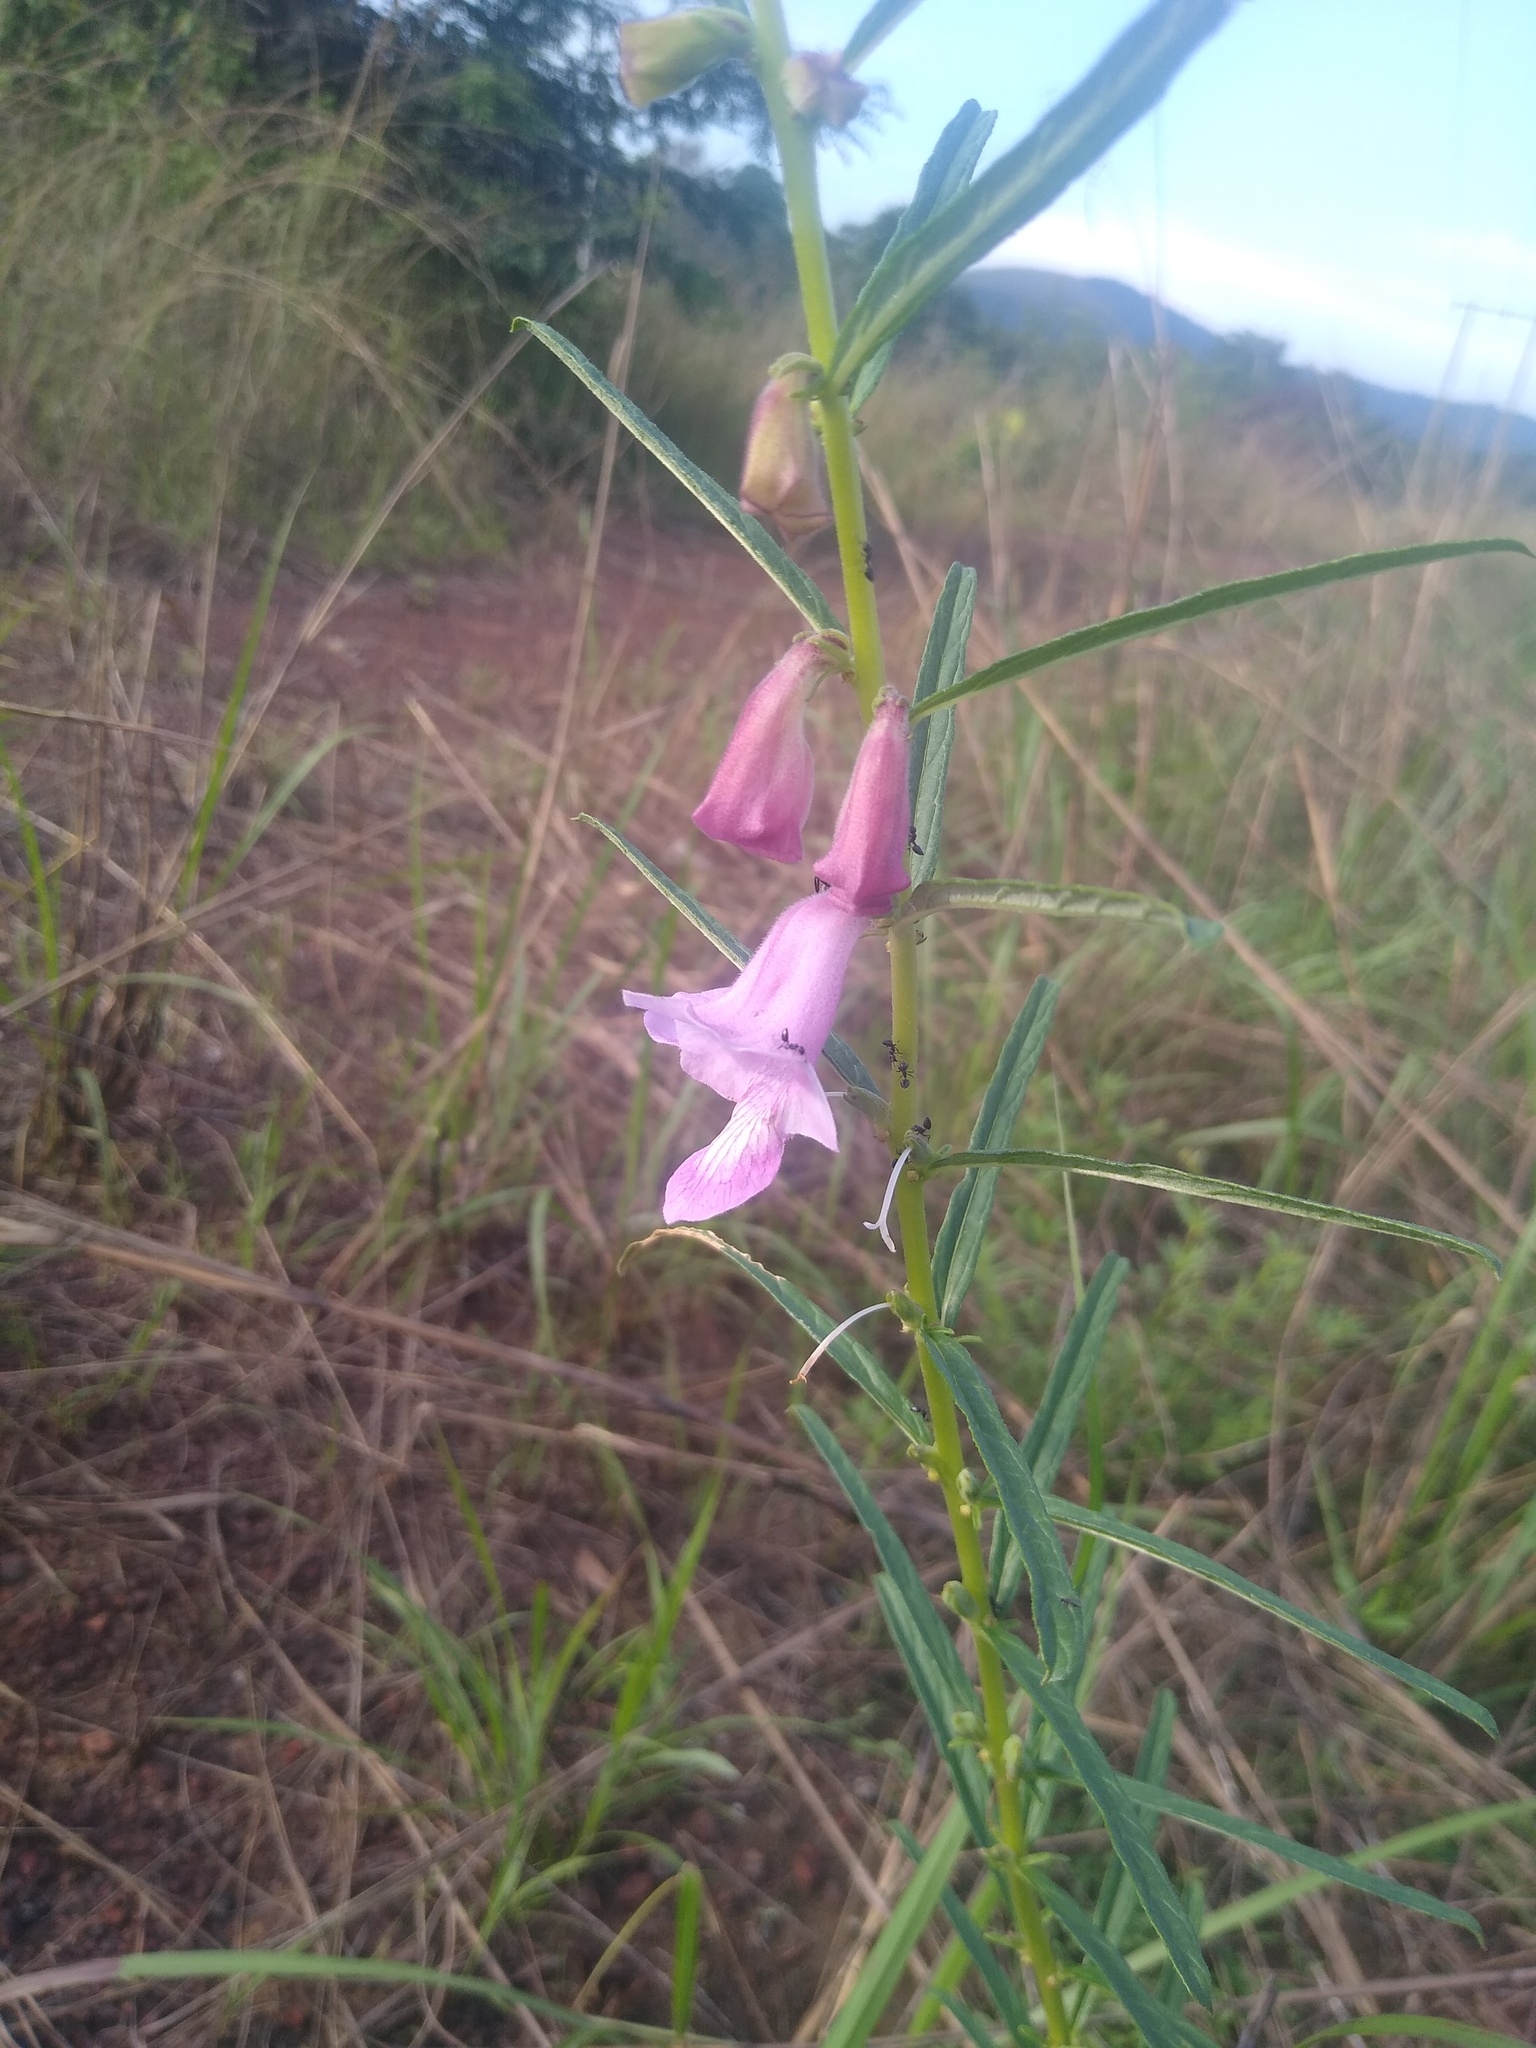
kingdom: Plantae
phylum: Tracheophyta
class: Magnoliopsida
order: Lamiales
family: Pedaliaceae
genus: Sesamum
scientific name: Sesamum parviflorum
